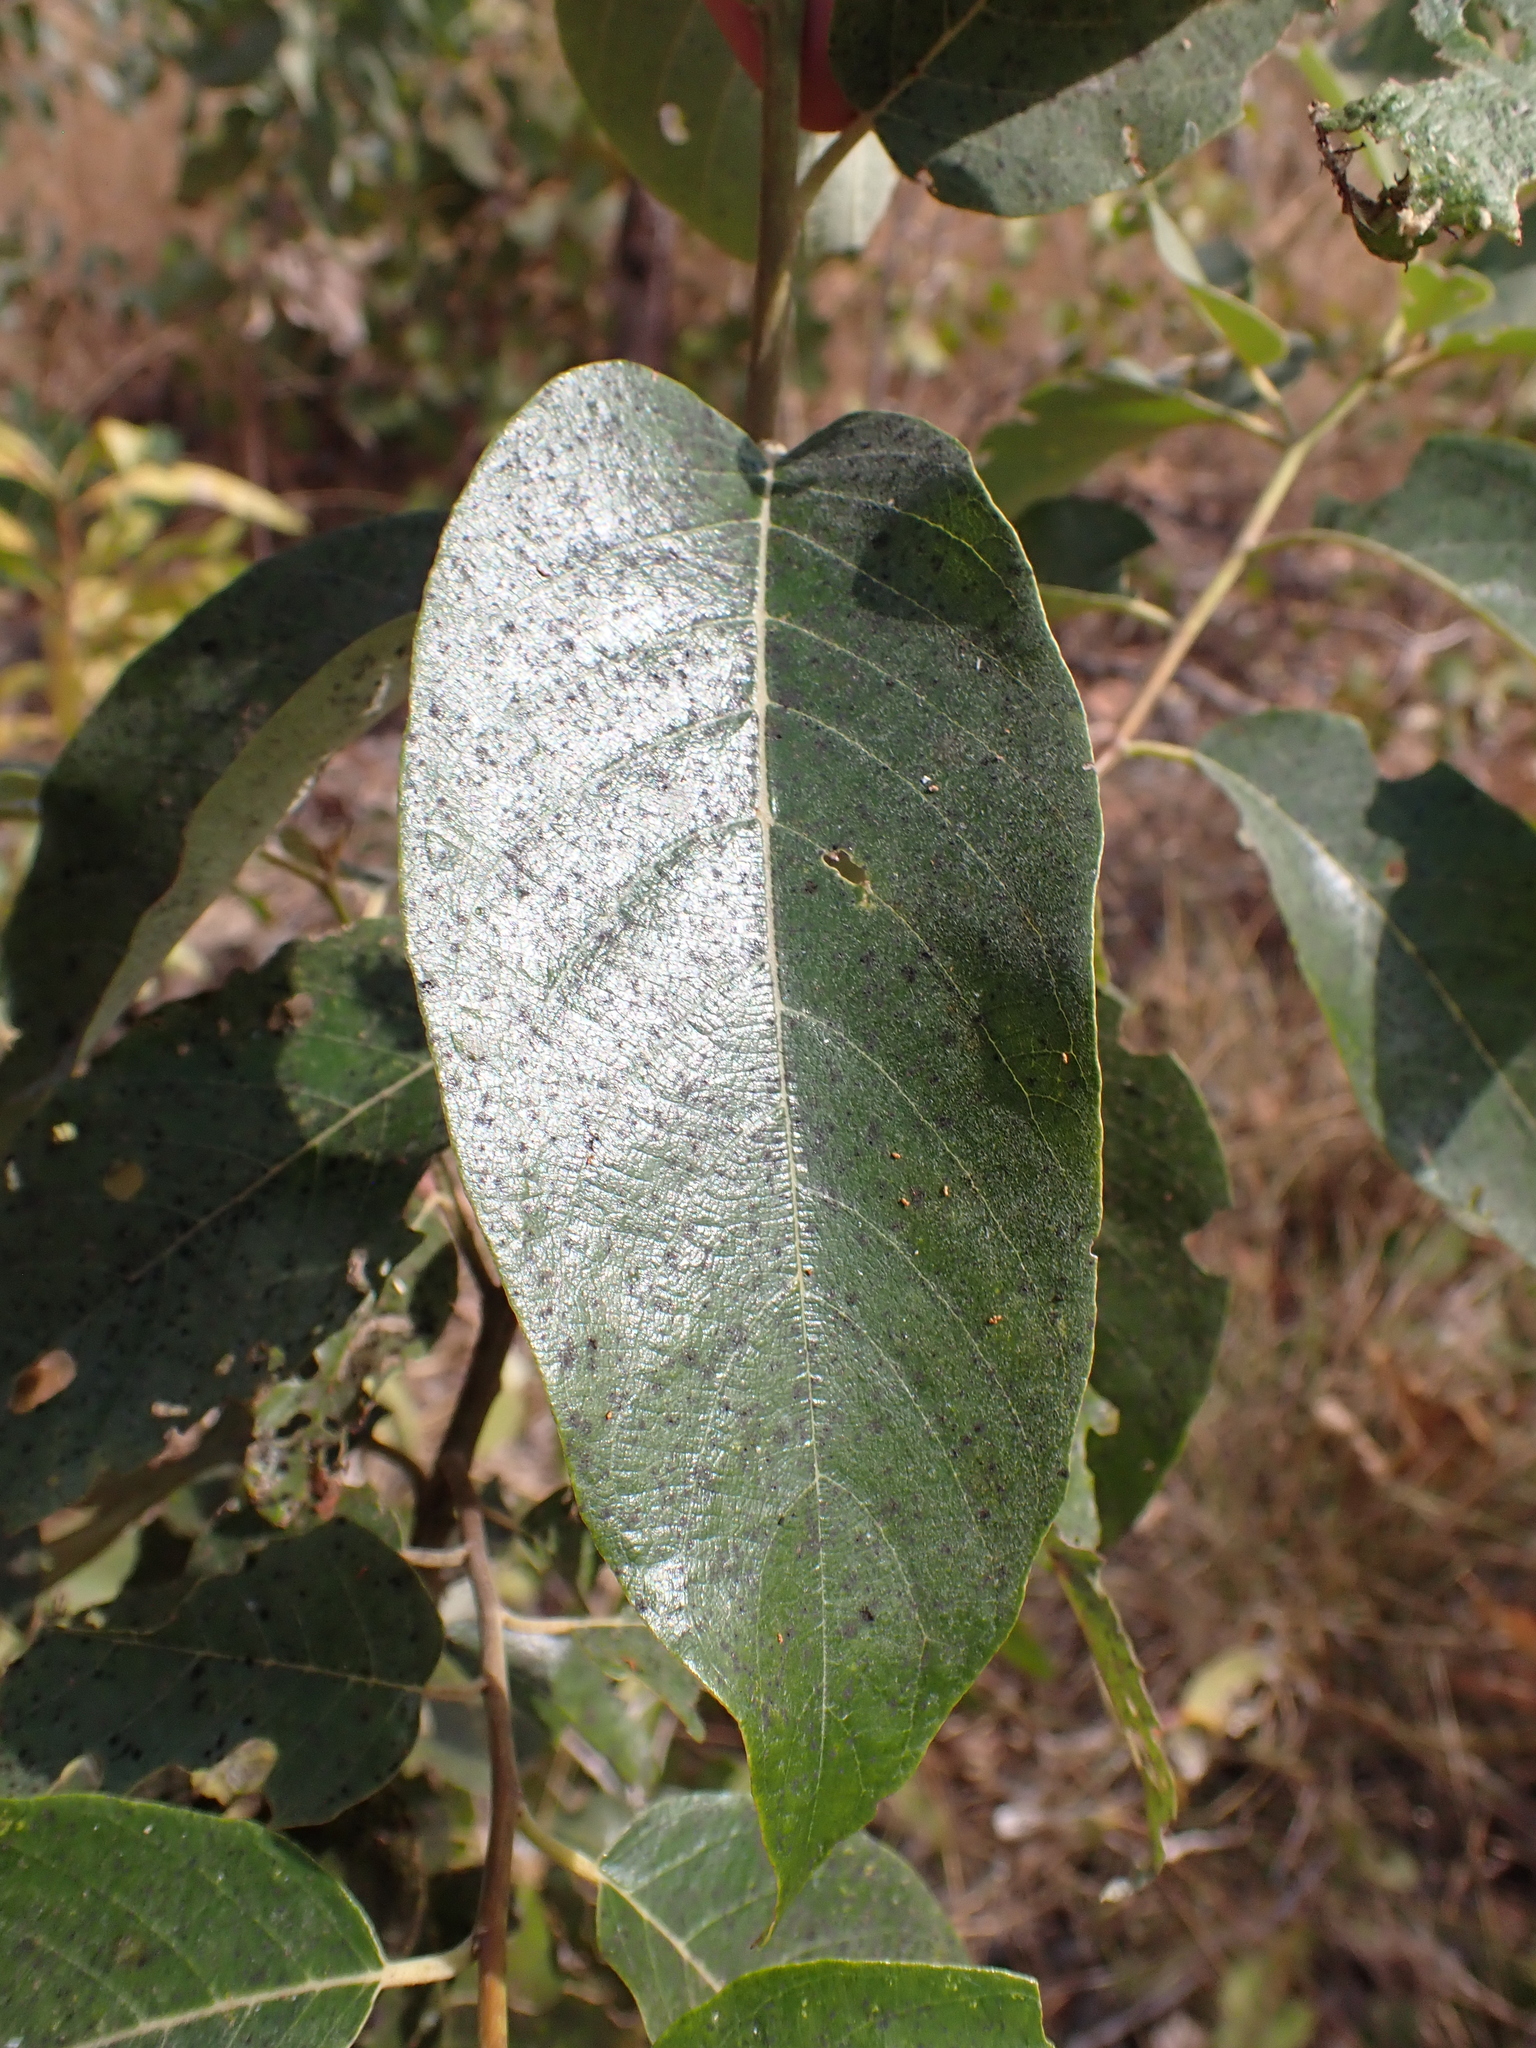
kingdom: Plantae
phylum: Tracheophyta
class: Magnoliopsida
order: Rosales
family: Rhamnaceae
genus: Alphitonia
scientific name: Alphitonia excelsa
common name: Red ash
